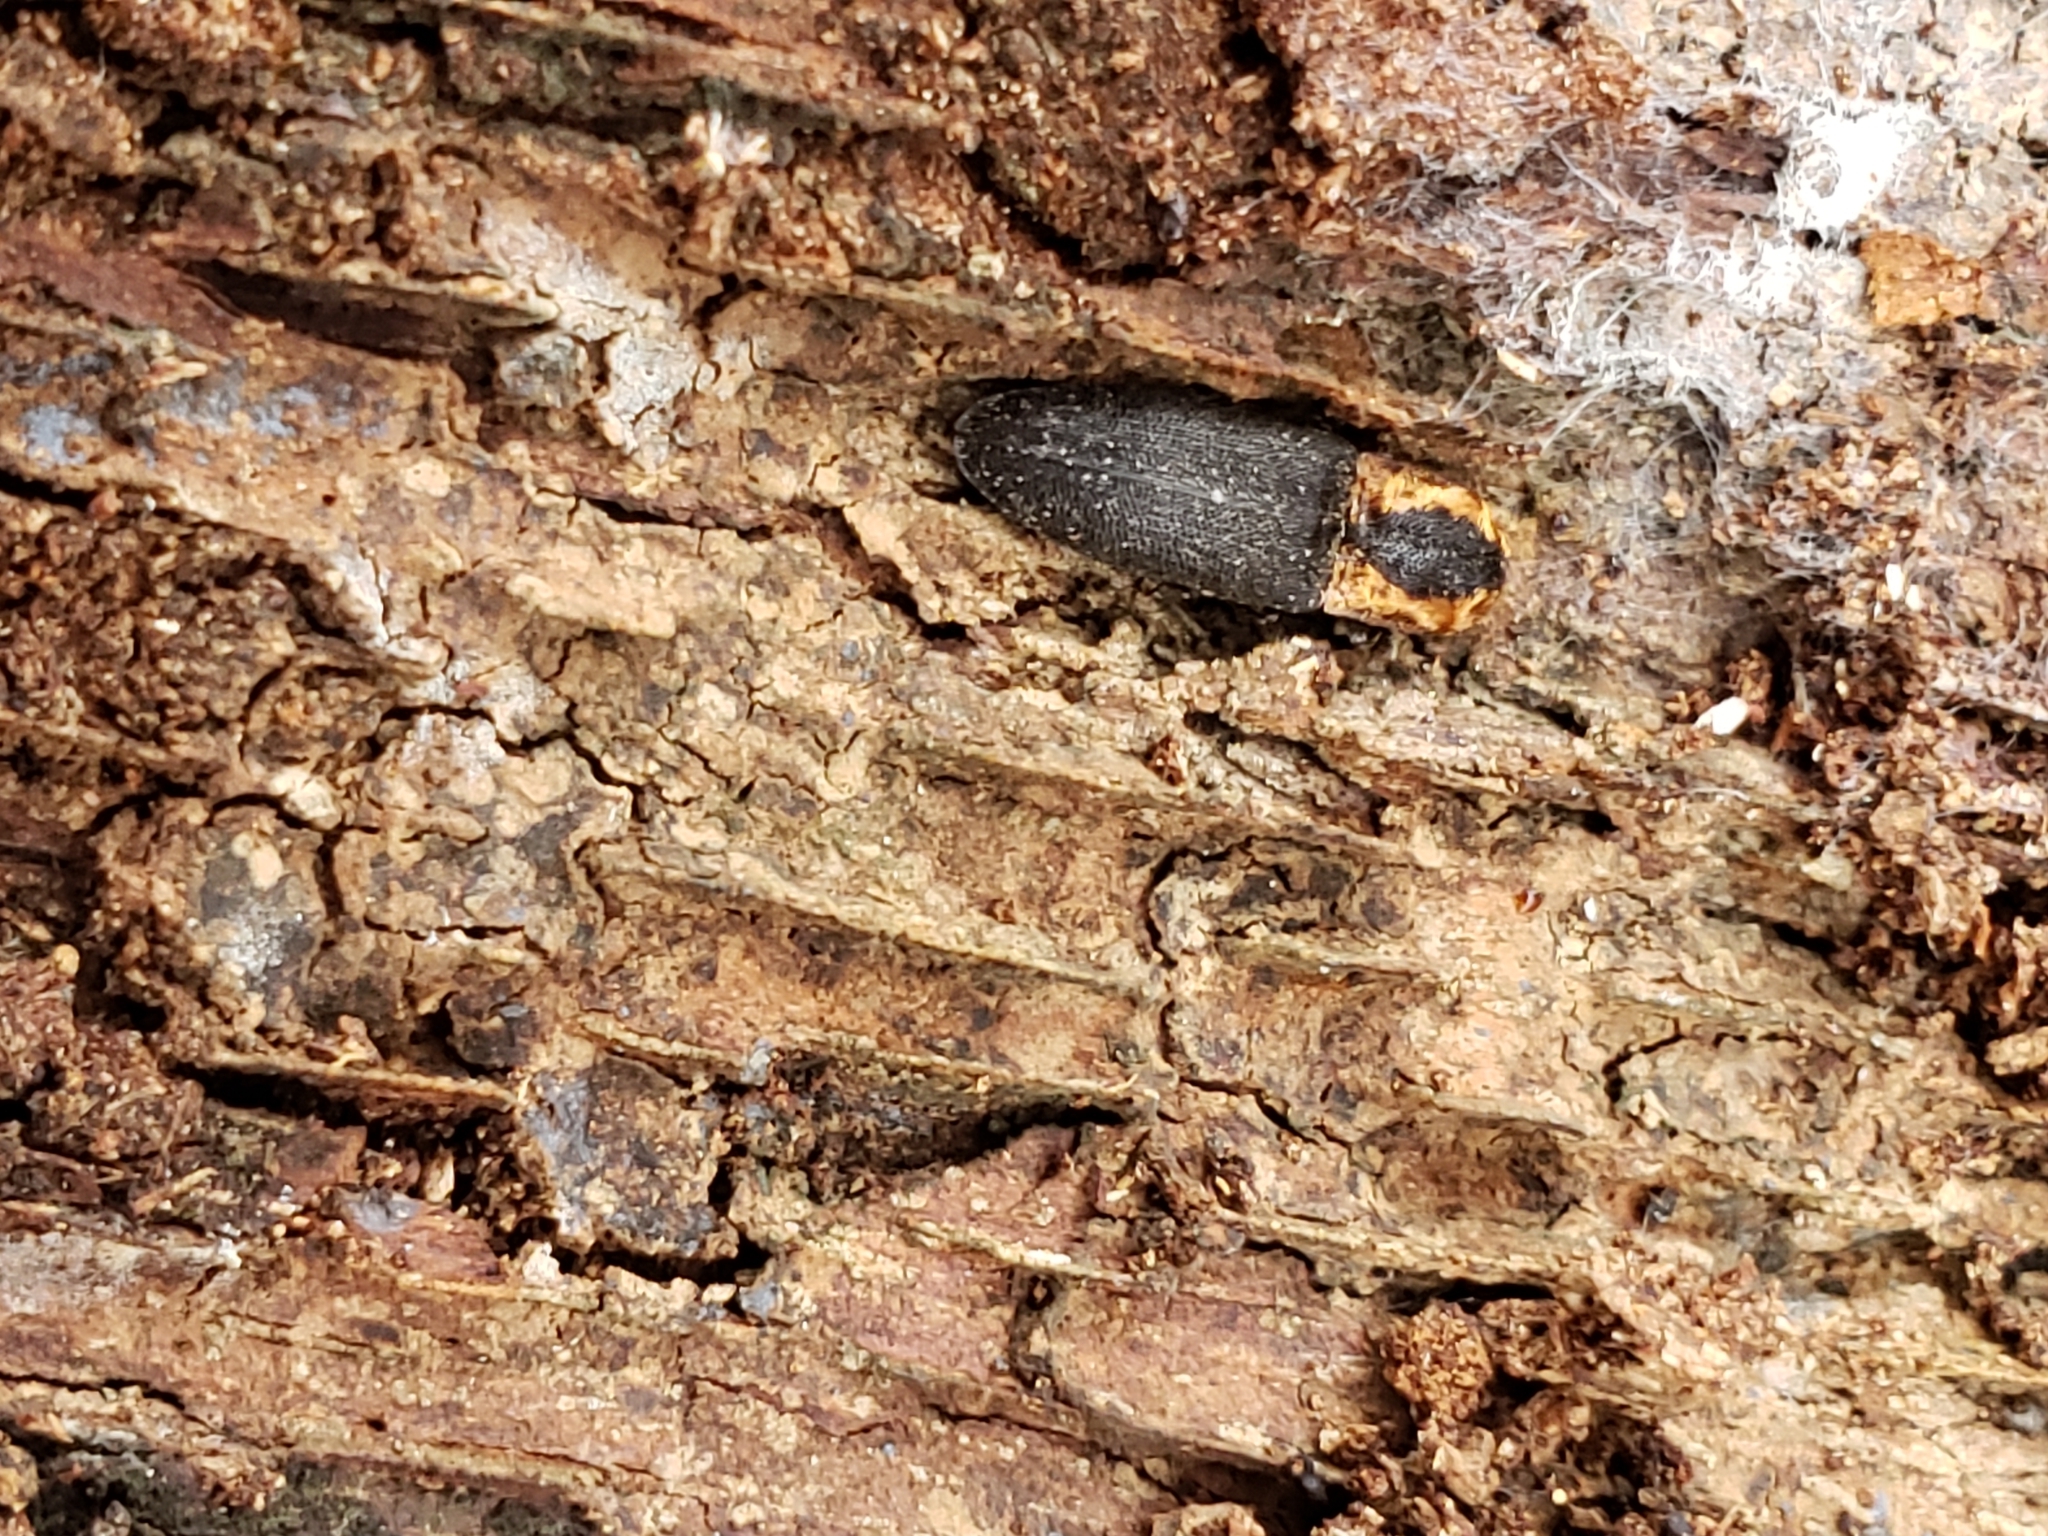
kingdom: Animalia
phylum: Arthropoda
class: Insecta
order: Coleoptera
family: Elateridae
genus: Lacon
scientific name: Lacon discoideus
